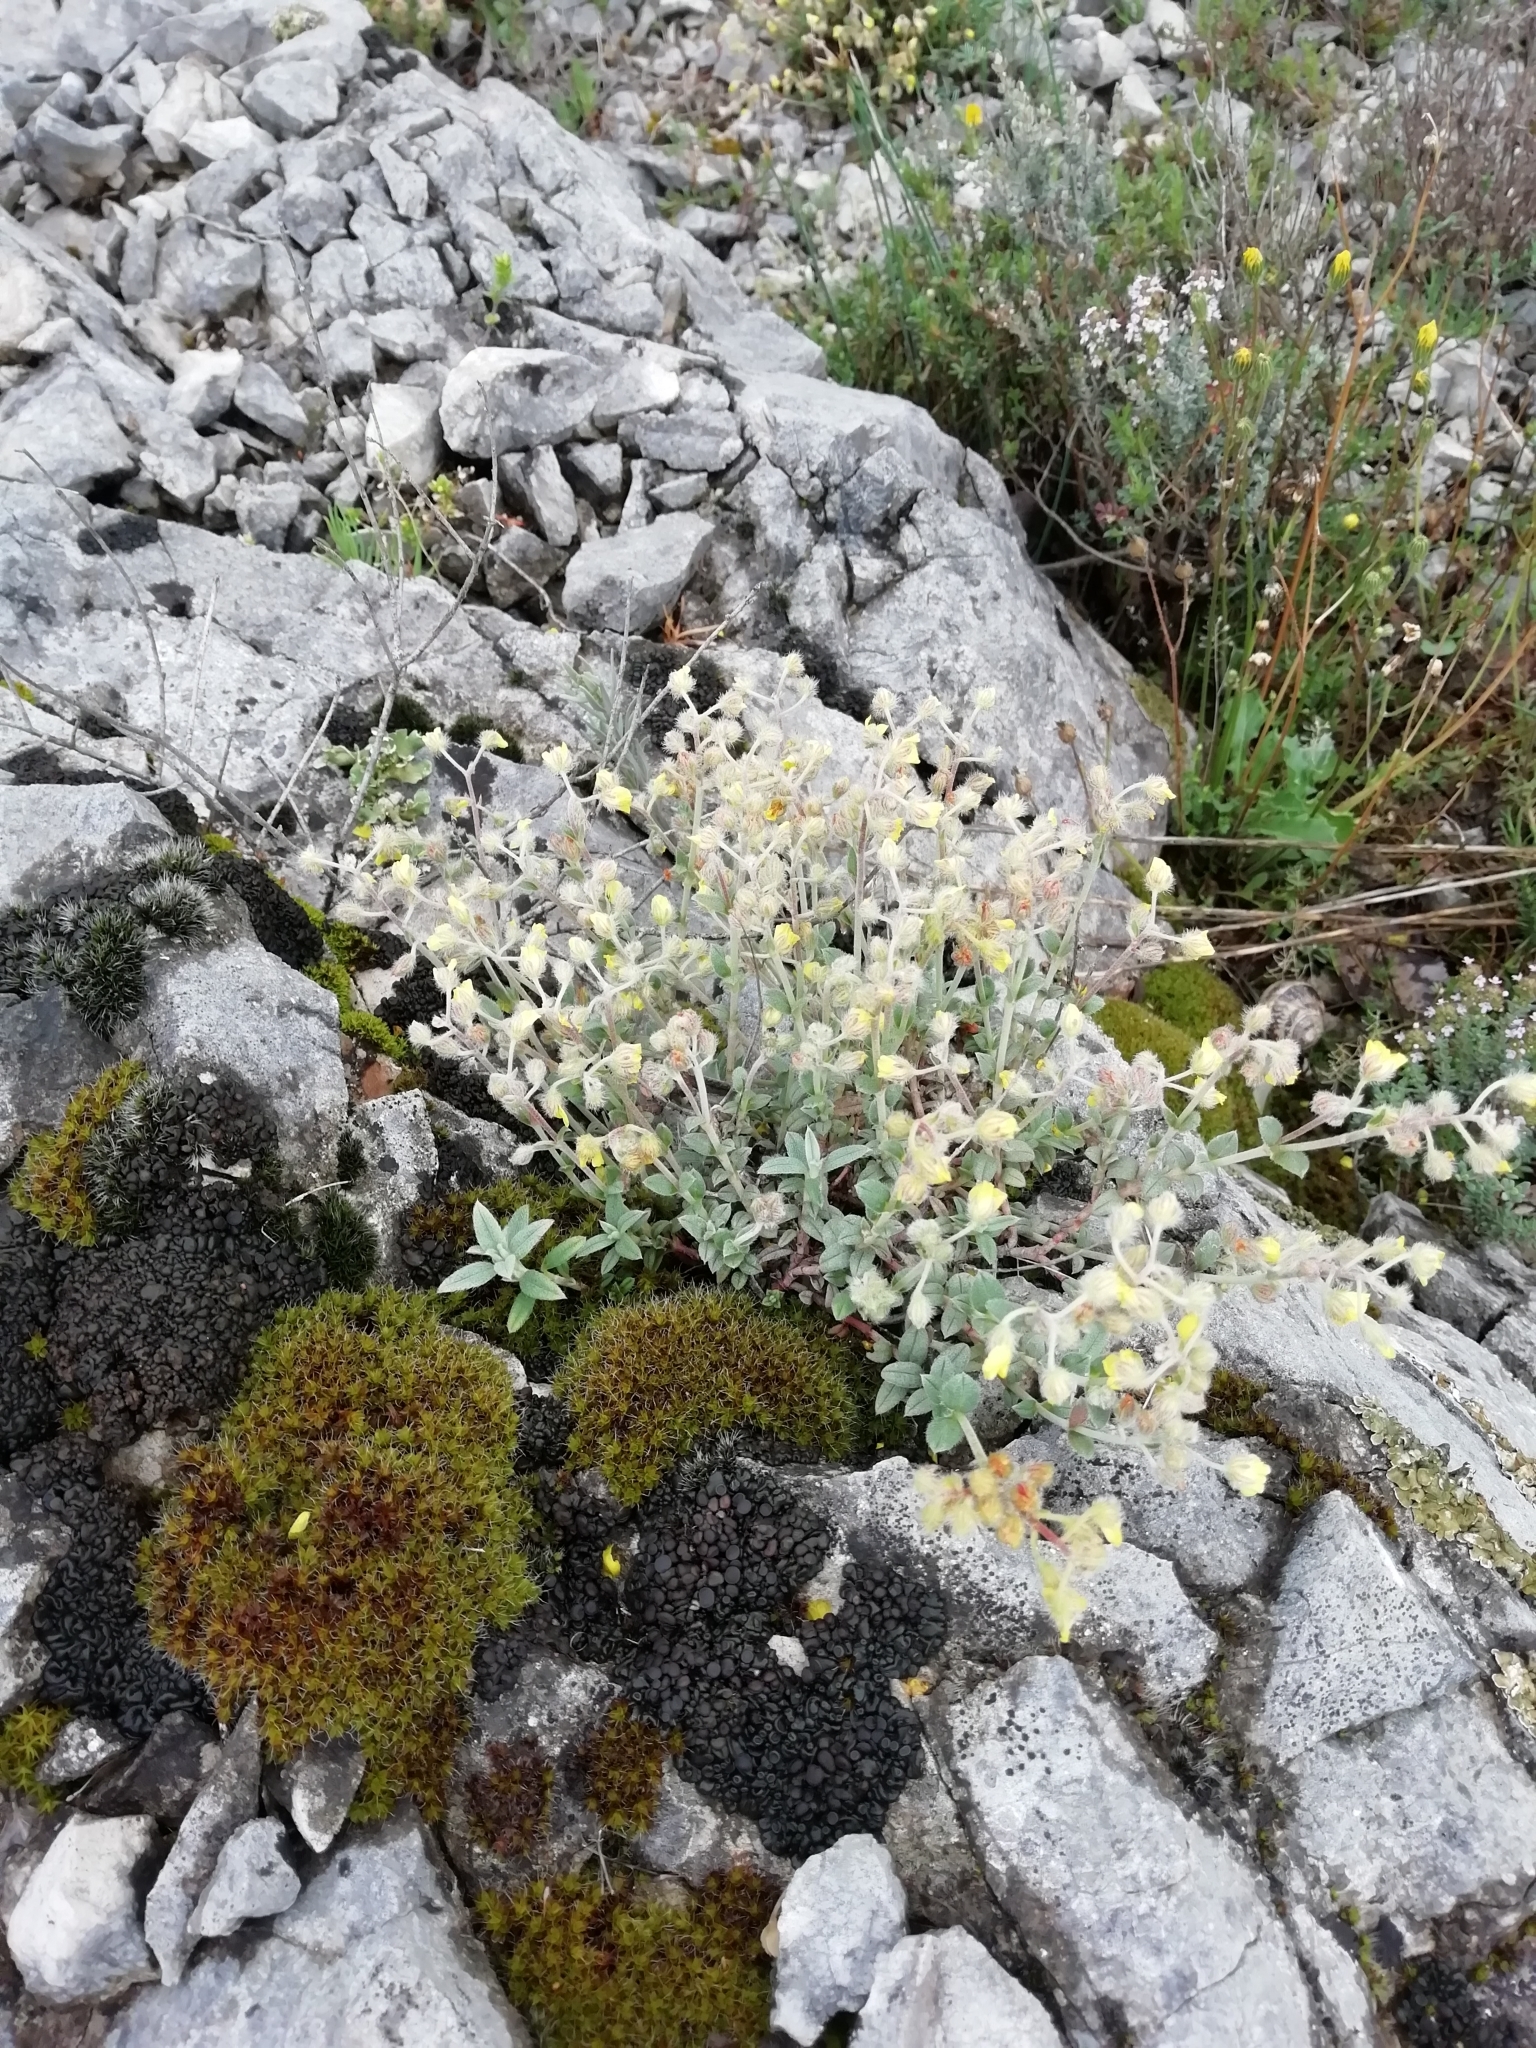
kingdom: Plantae
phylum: Tracheophyta
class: Magnoliopsida
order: Malvales
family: Cistaceae
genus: Helianthemum
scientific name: Helianthemum canum
